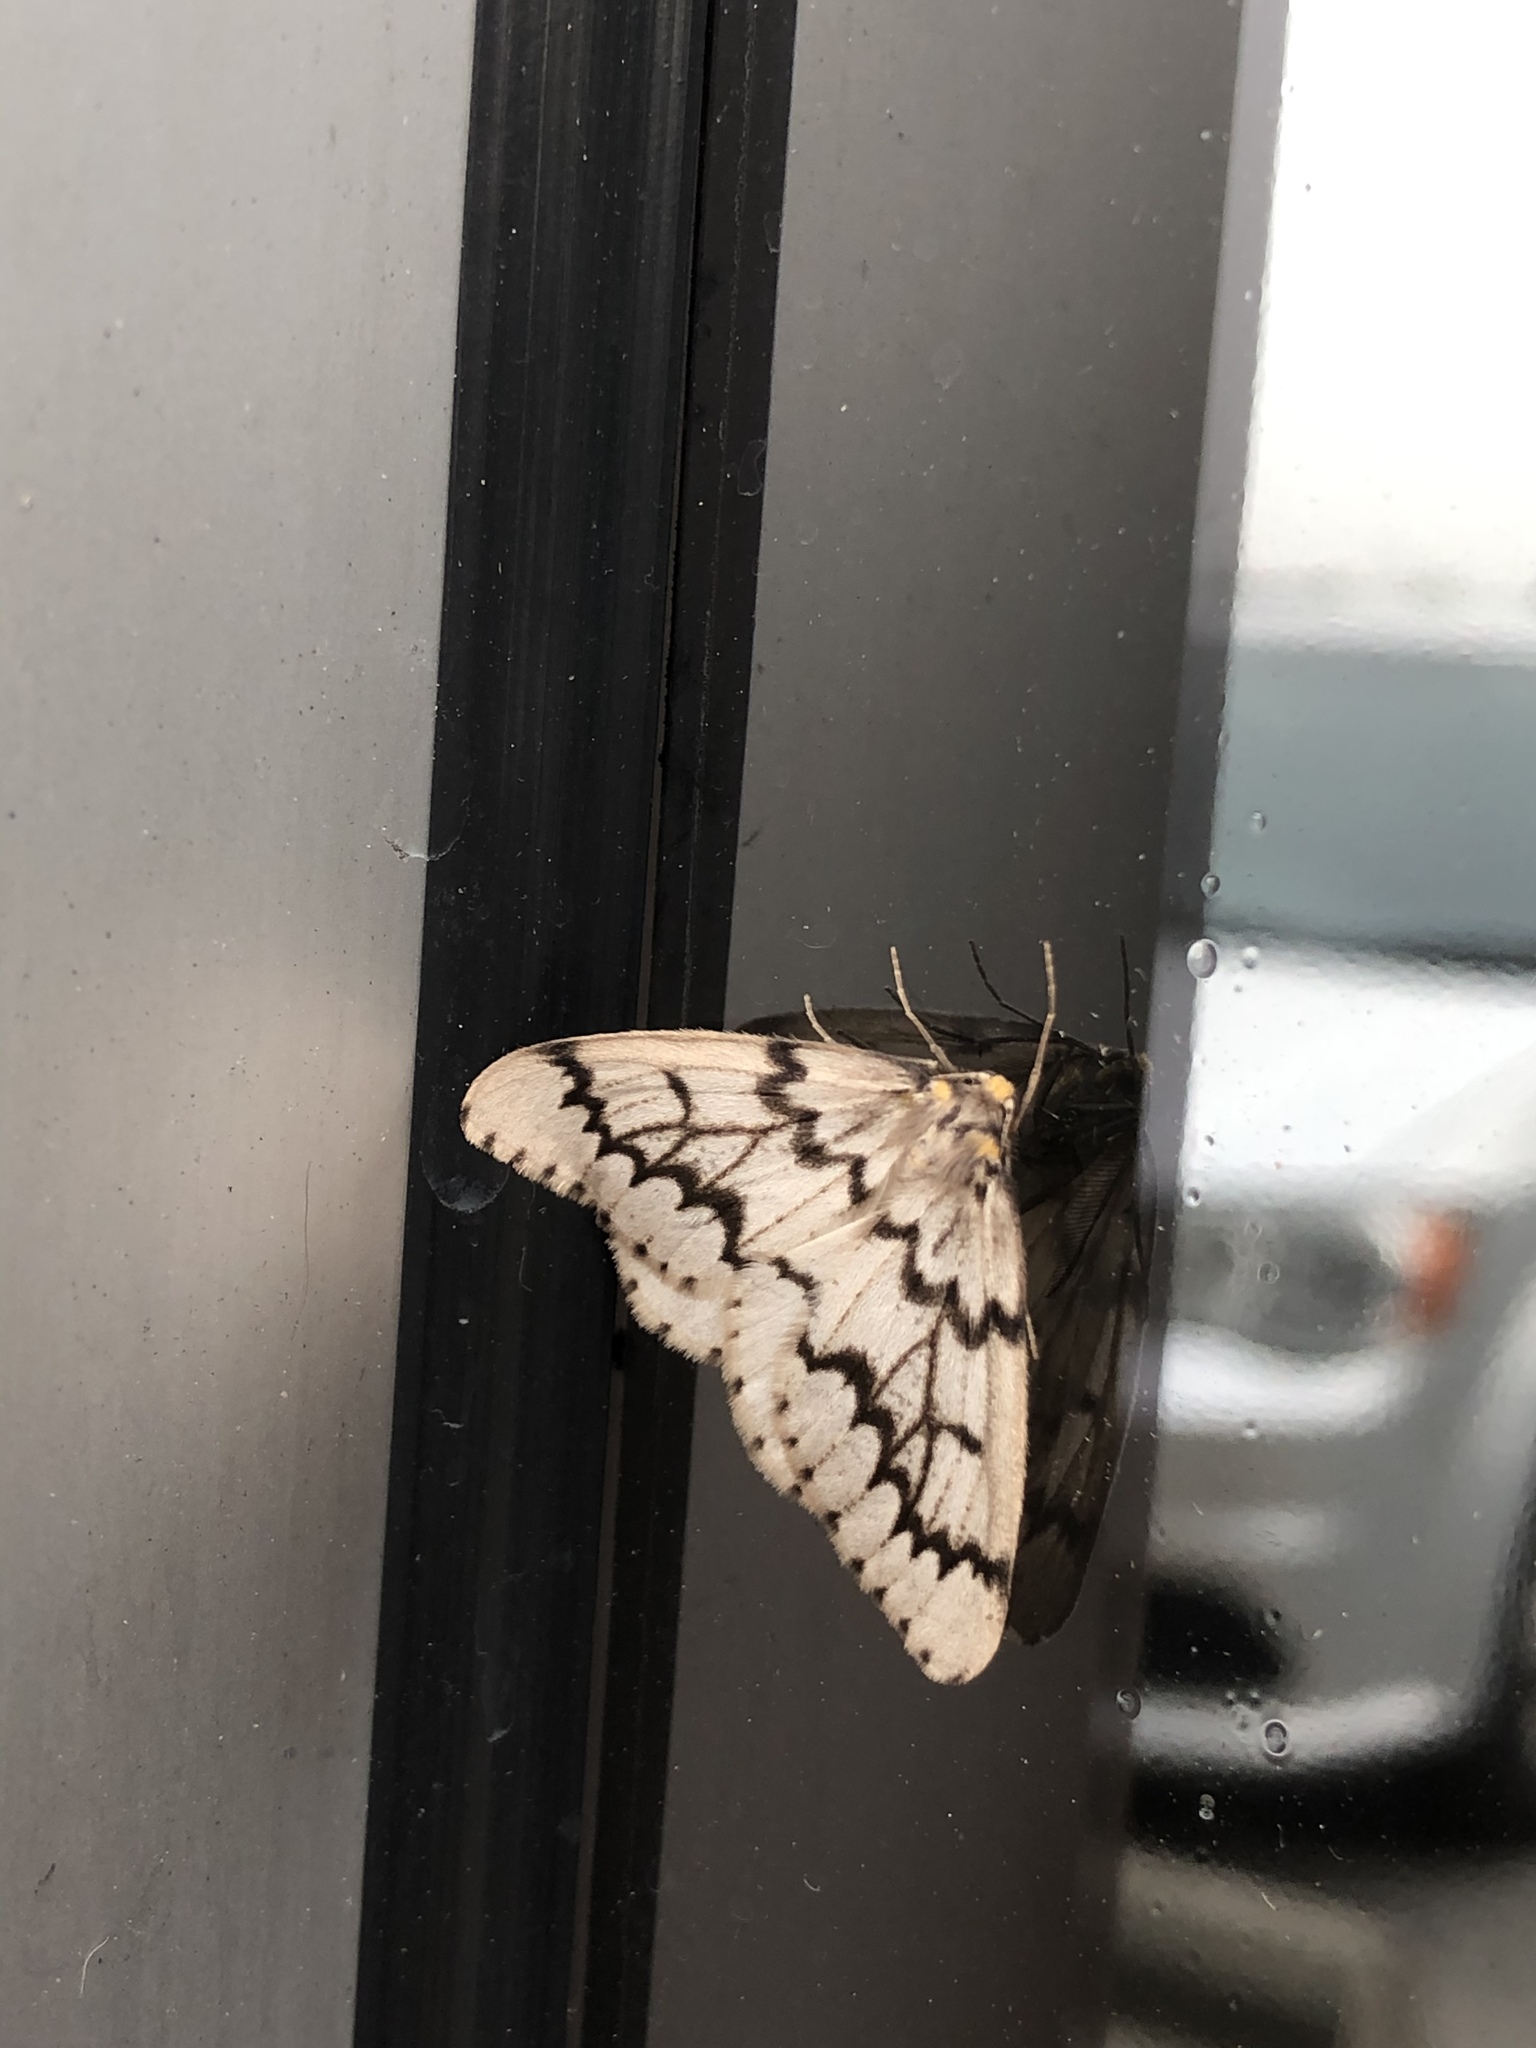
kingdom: Animalia
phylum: Arthropoda
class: Insecta
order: Lepidoptera
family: Geometridae
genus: Nepytia
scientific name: Nepytia phantasmaria
